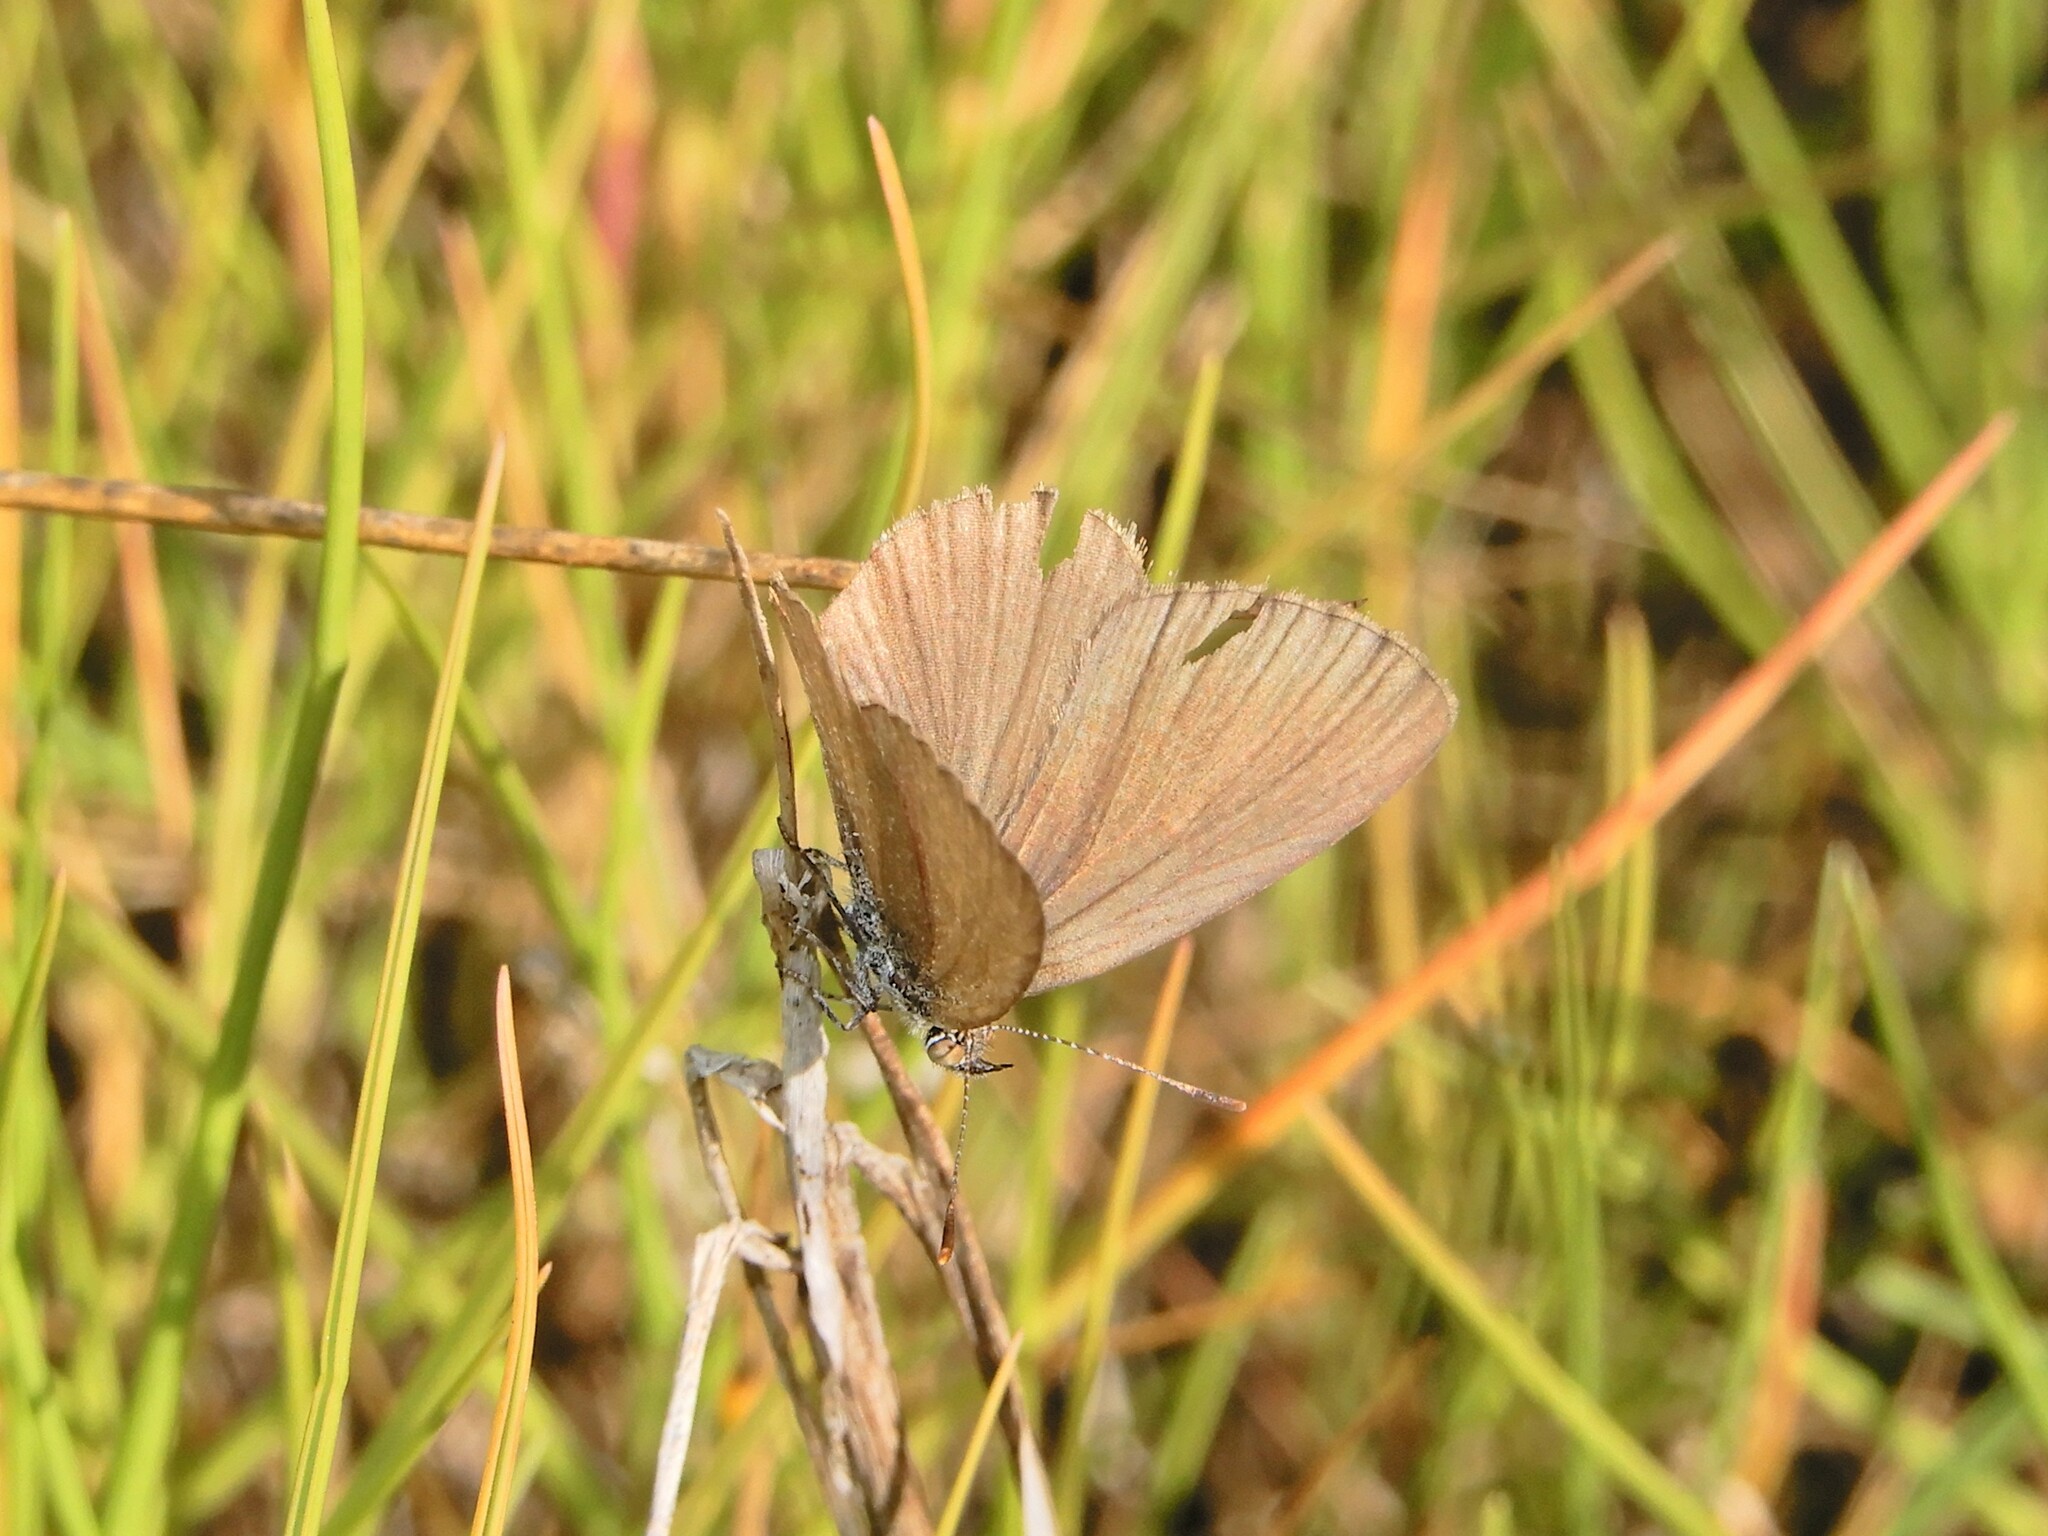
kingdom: Animalia
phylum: Arthropoda
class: Insecta
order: Lepidoptera
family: Lycaenidae
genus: Zizina
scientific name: Zizina labradus
